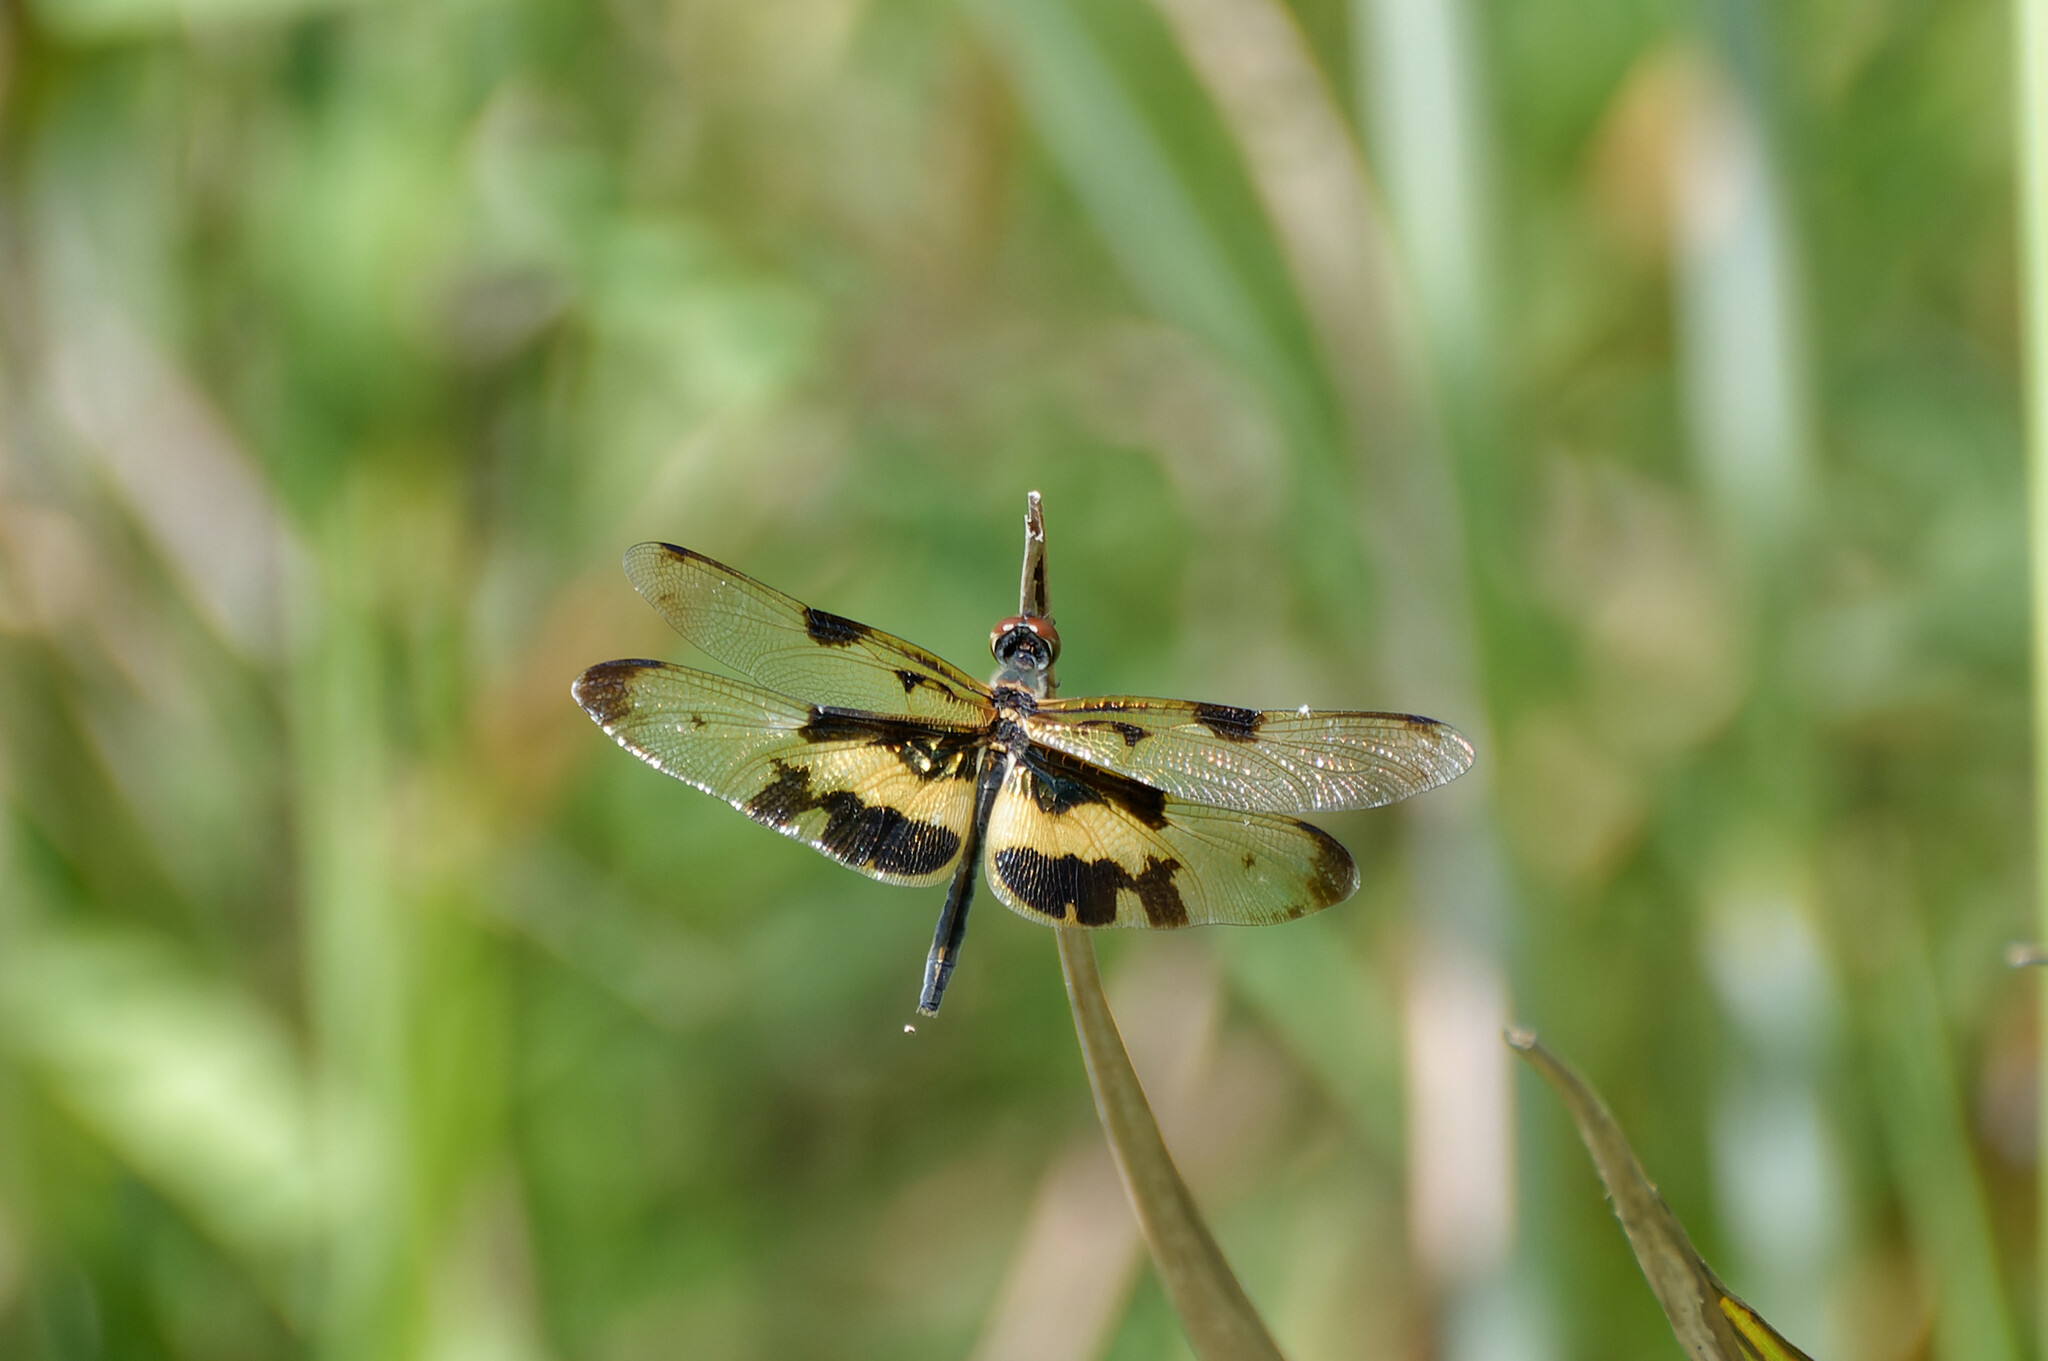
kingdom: Animalia
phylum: Arthropoda
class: Insecta
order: Odonata
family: Libellulidae
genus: Rhyothemis
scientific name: Rhyothemis variegata
